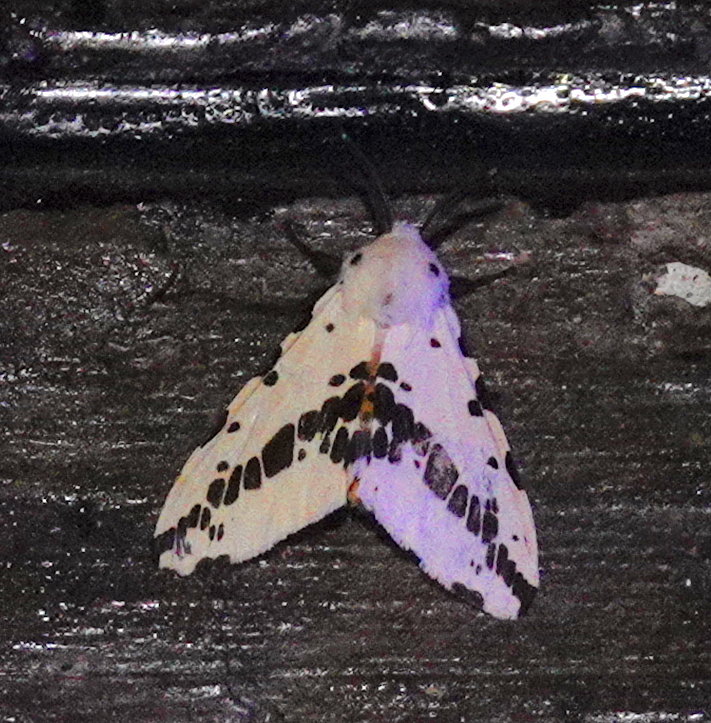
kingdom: Animalia
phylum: Arthropoda
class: Insecta
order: Lepidoptera
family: Erebidae
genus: Lemyra
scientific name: Lemyra
